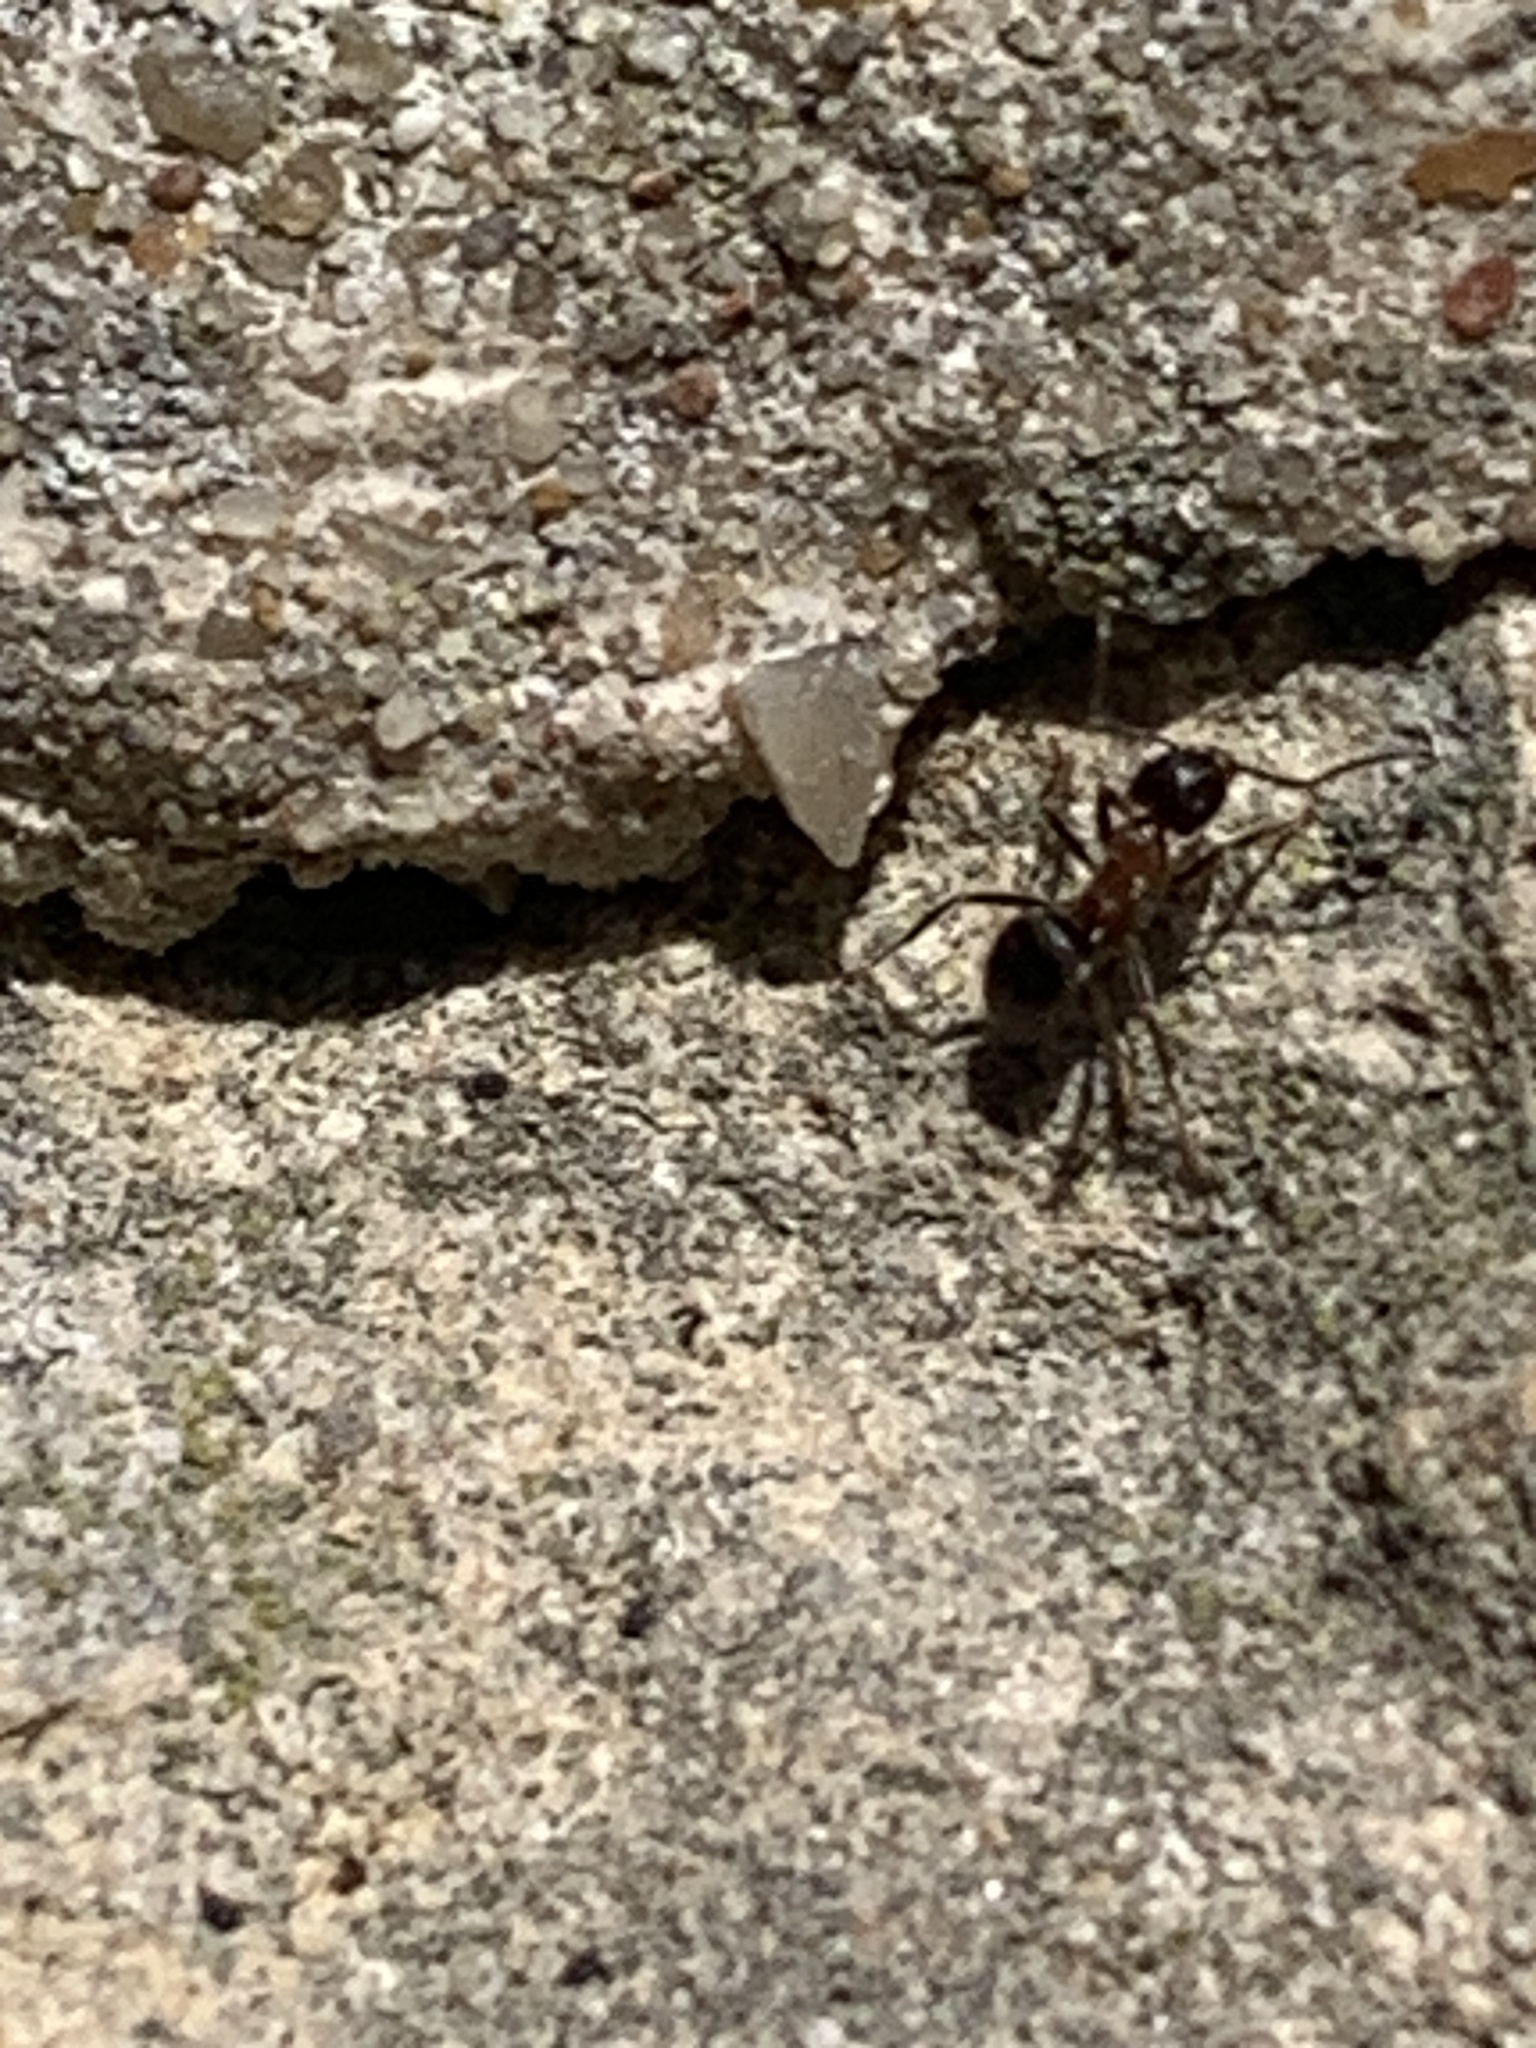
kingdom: Animalia
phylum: Arthropoda
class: Insecta
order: Hymenoptera
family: Formicidae
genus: Lasius
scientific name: Lasius emarginatus
